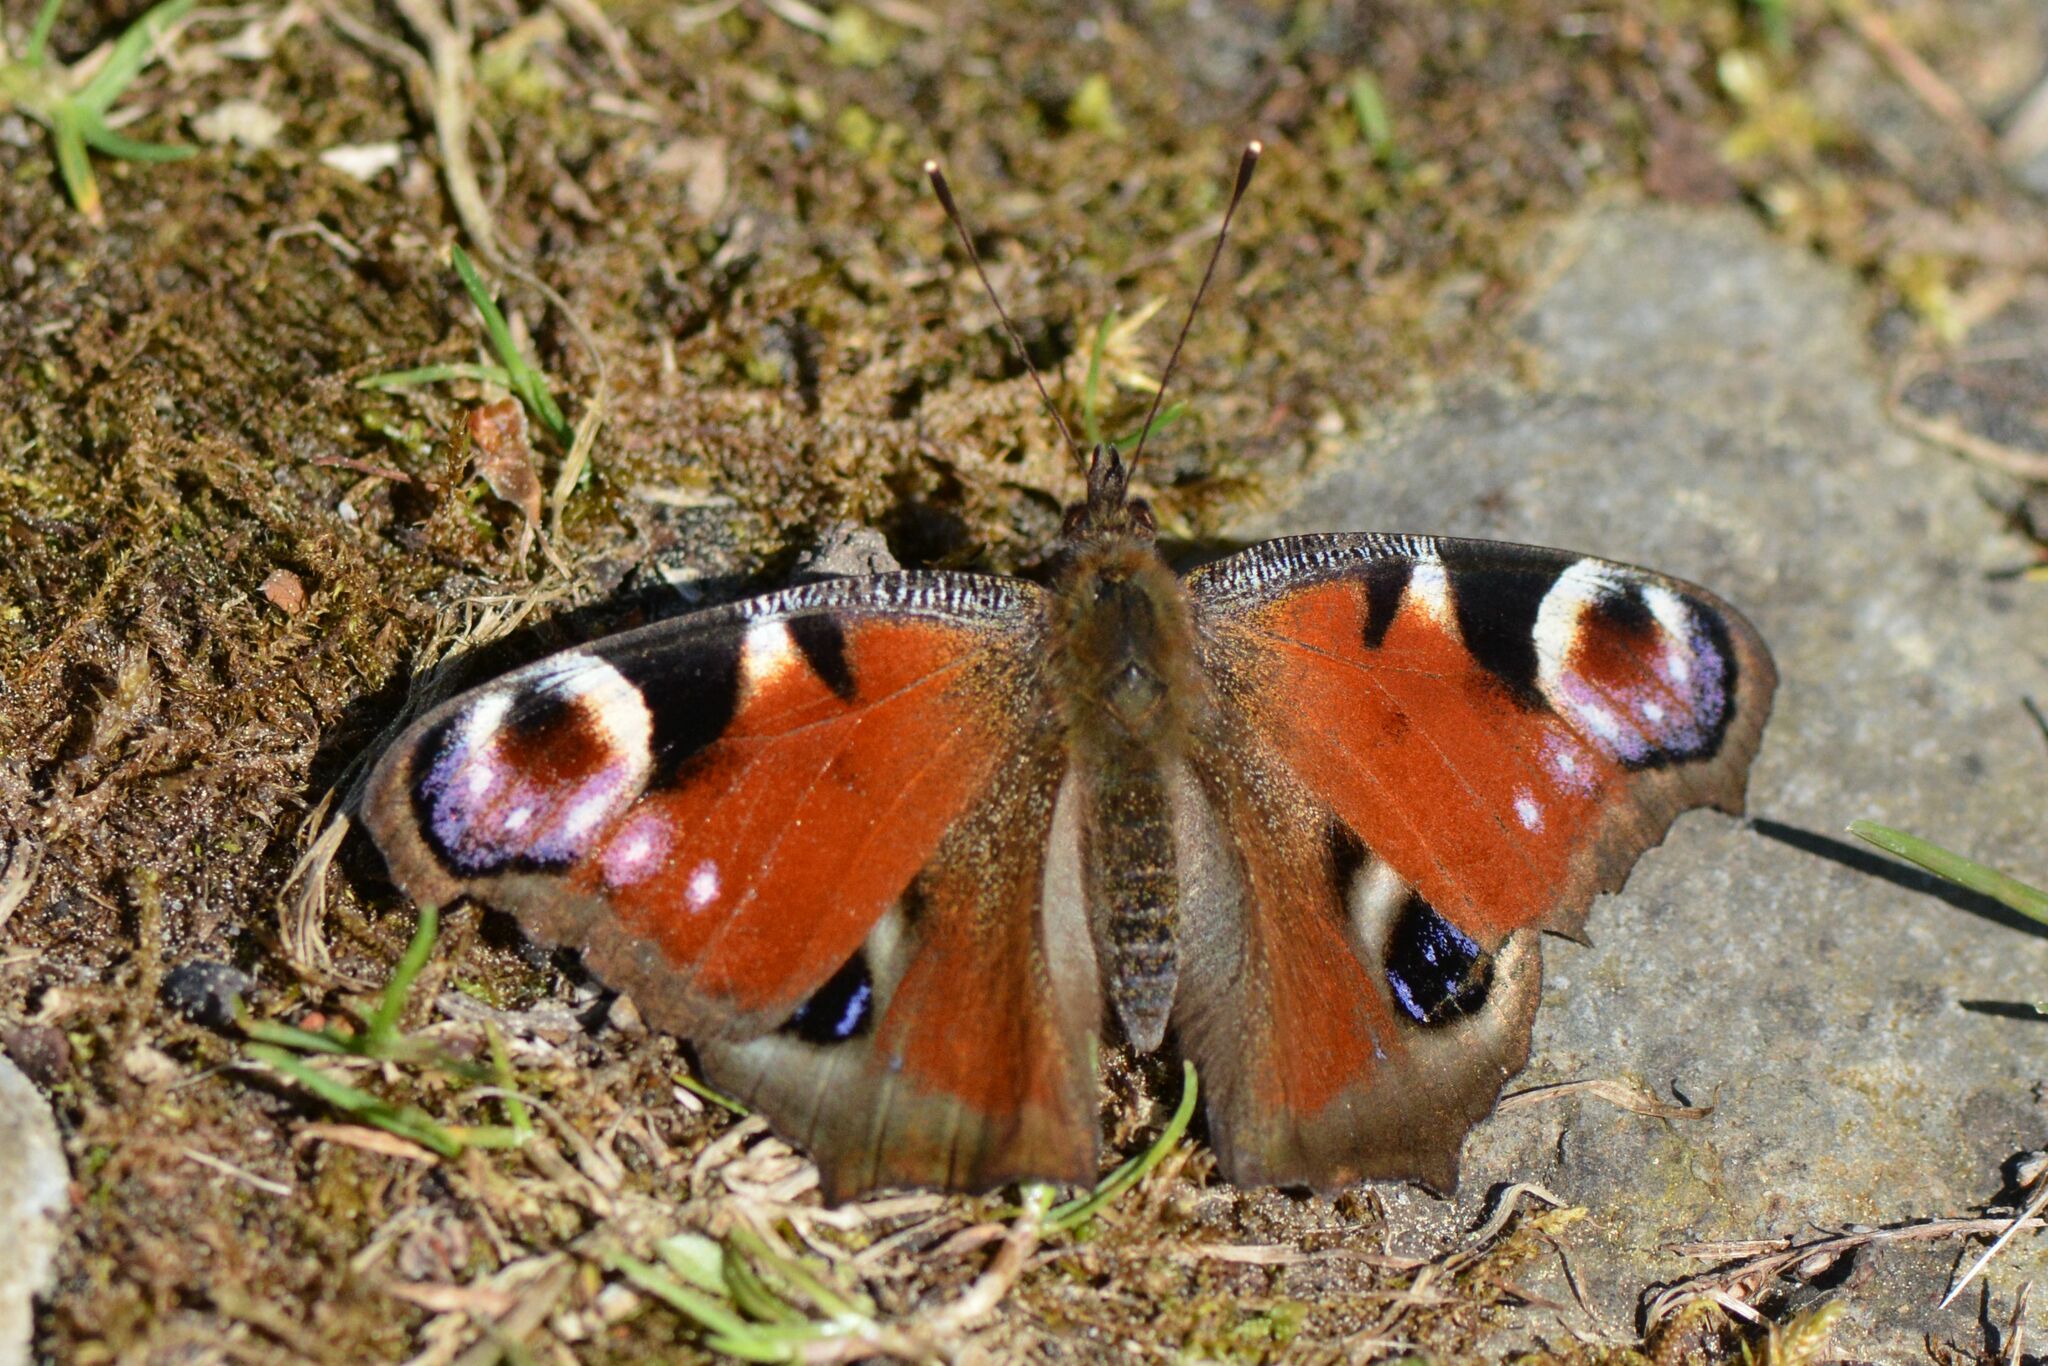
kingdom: Animalia
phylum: Arthropoda
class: Insecta
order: Lepidoptera
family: Nymphalidae
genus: Aglais
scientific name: Aglais io
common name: Peacock
